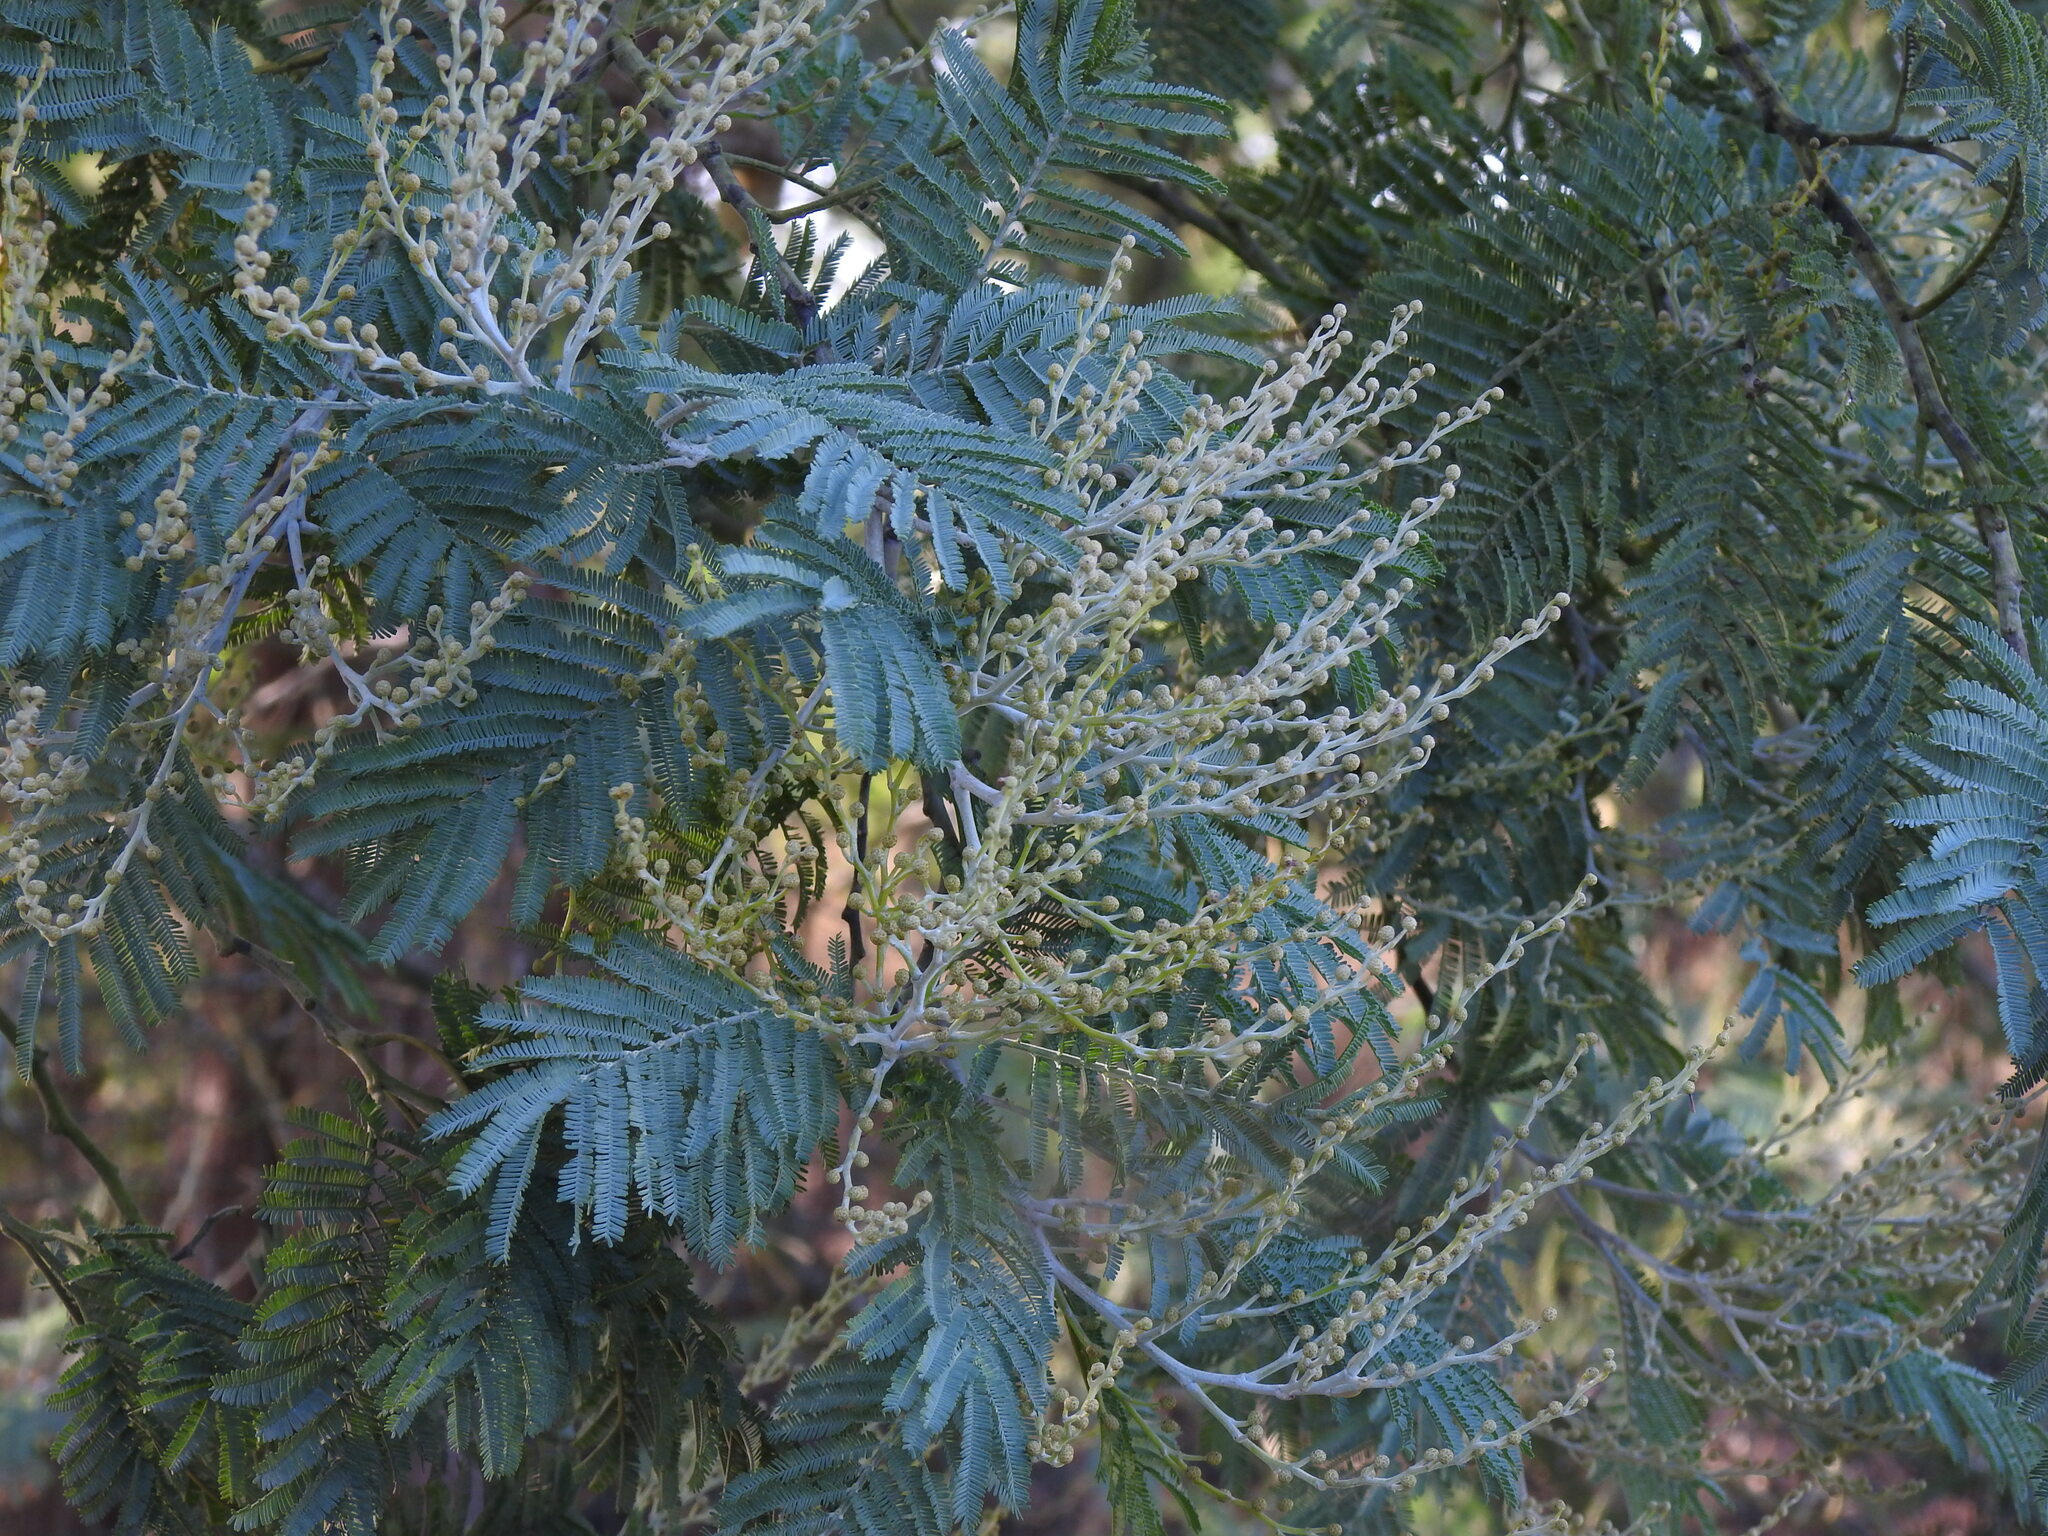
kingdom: Plantae
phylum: Tracheophyta
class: Magnoliopsida
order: Fabales
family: Fabaceae
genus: Acacia
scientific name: Acacia dealbata
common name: Silver wattle
